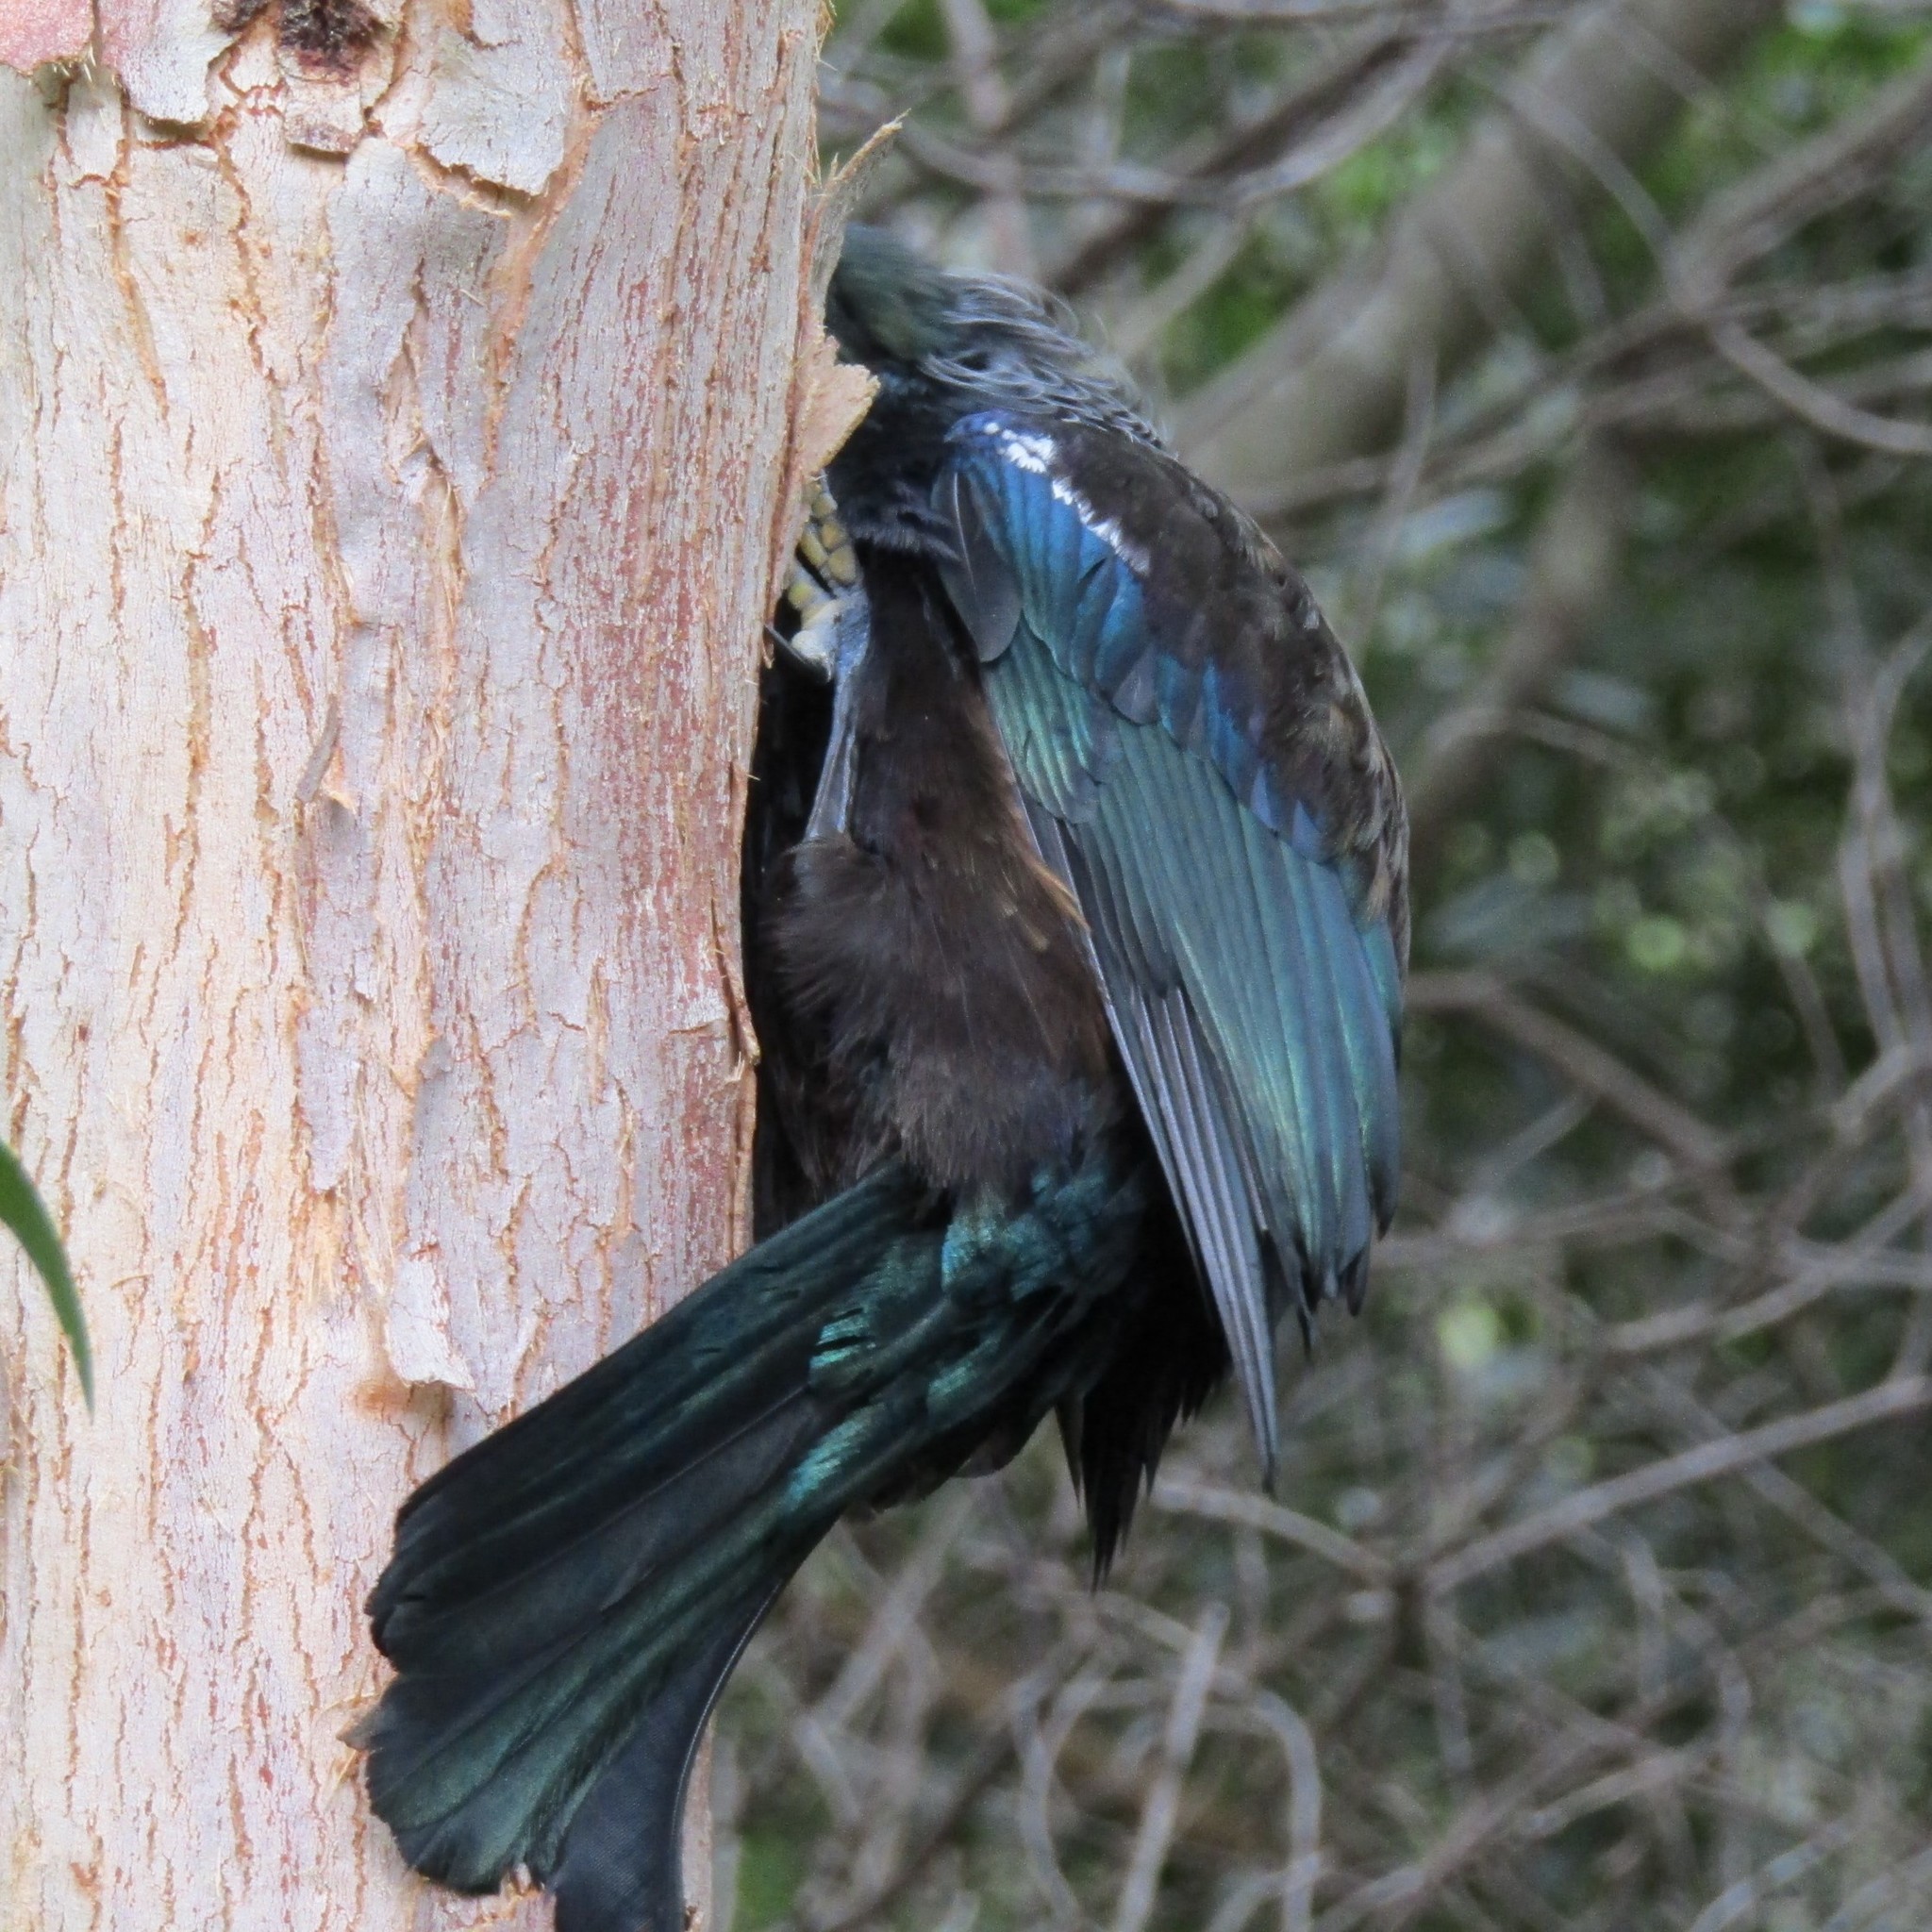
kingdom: Animalia
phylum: Chordata
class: Aves
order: Passeriformes
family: Meliphagidae
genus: Prosthemadera
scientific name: Prosthemadera novaeseelandiae
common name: Tui
